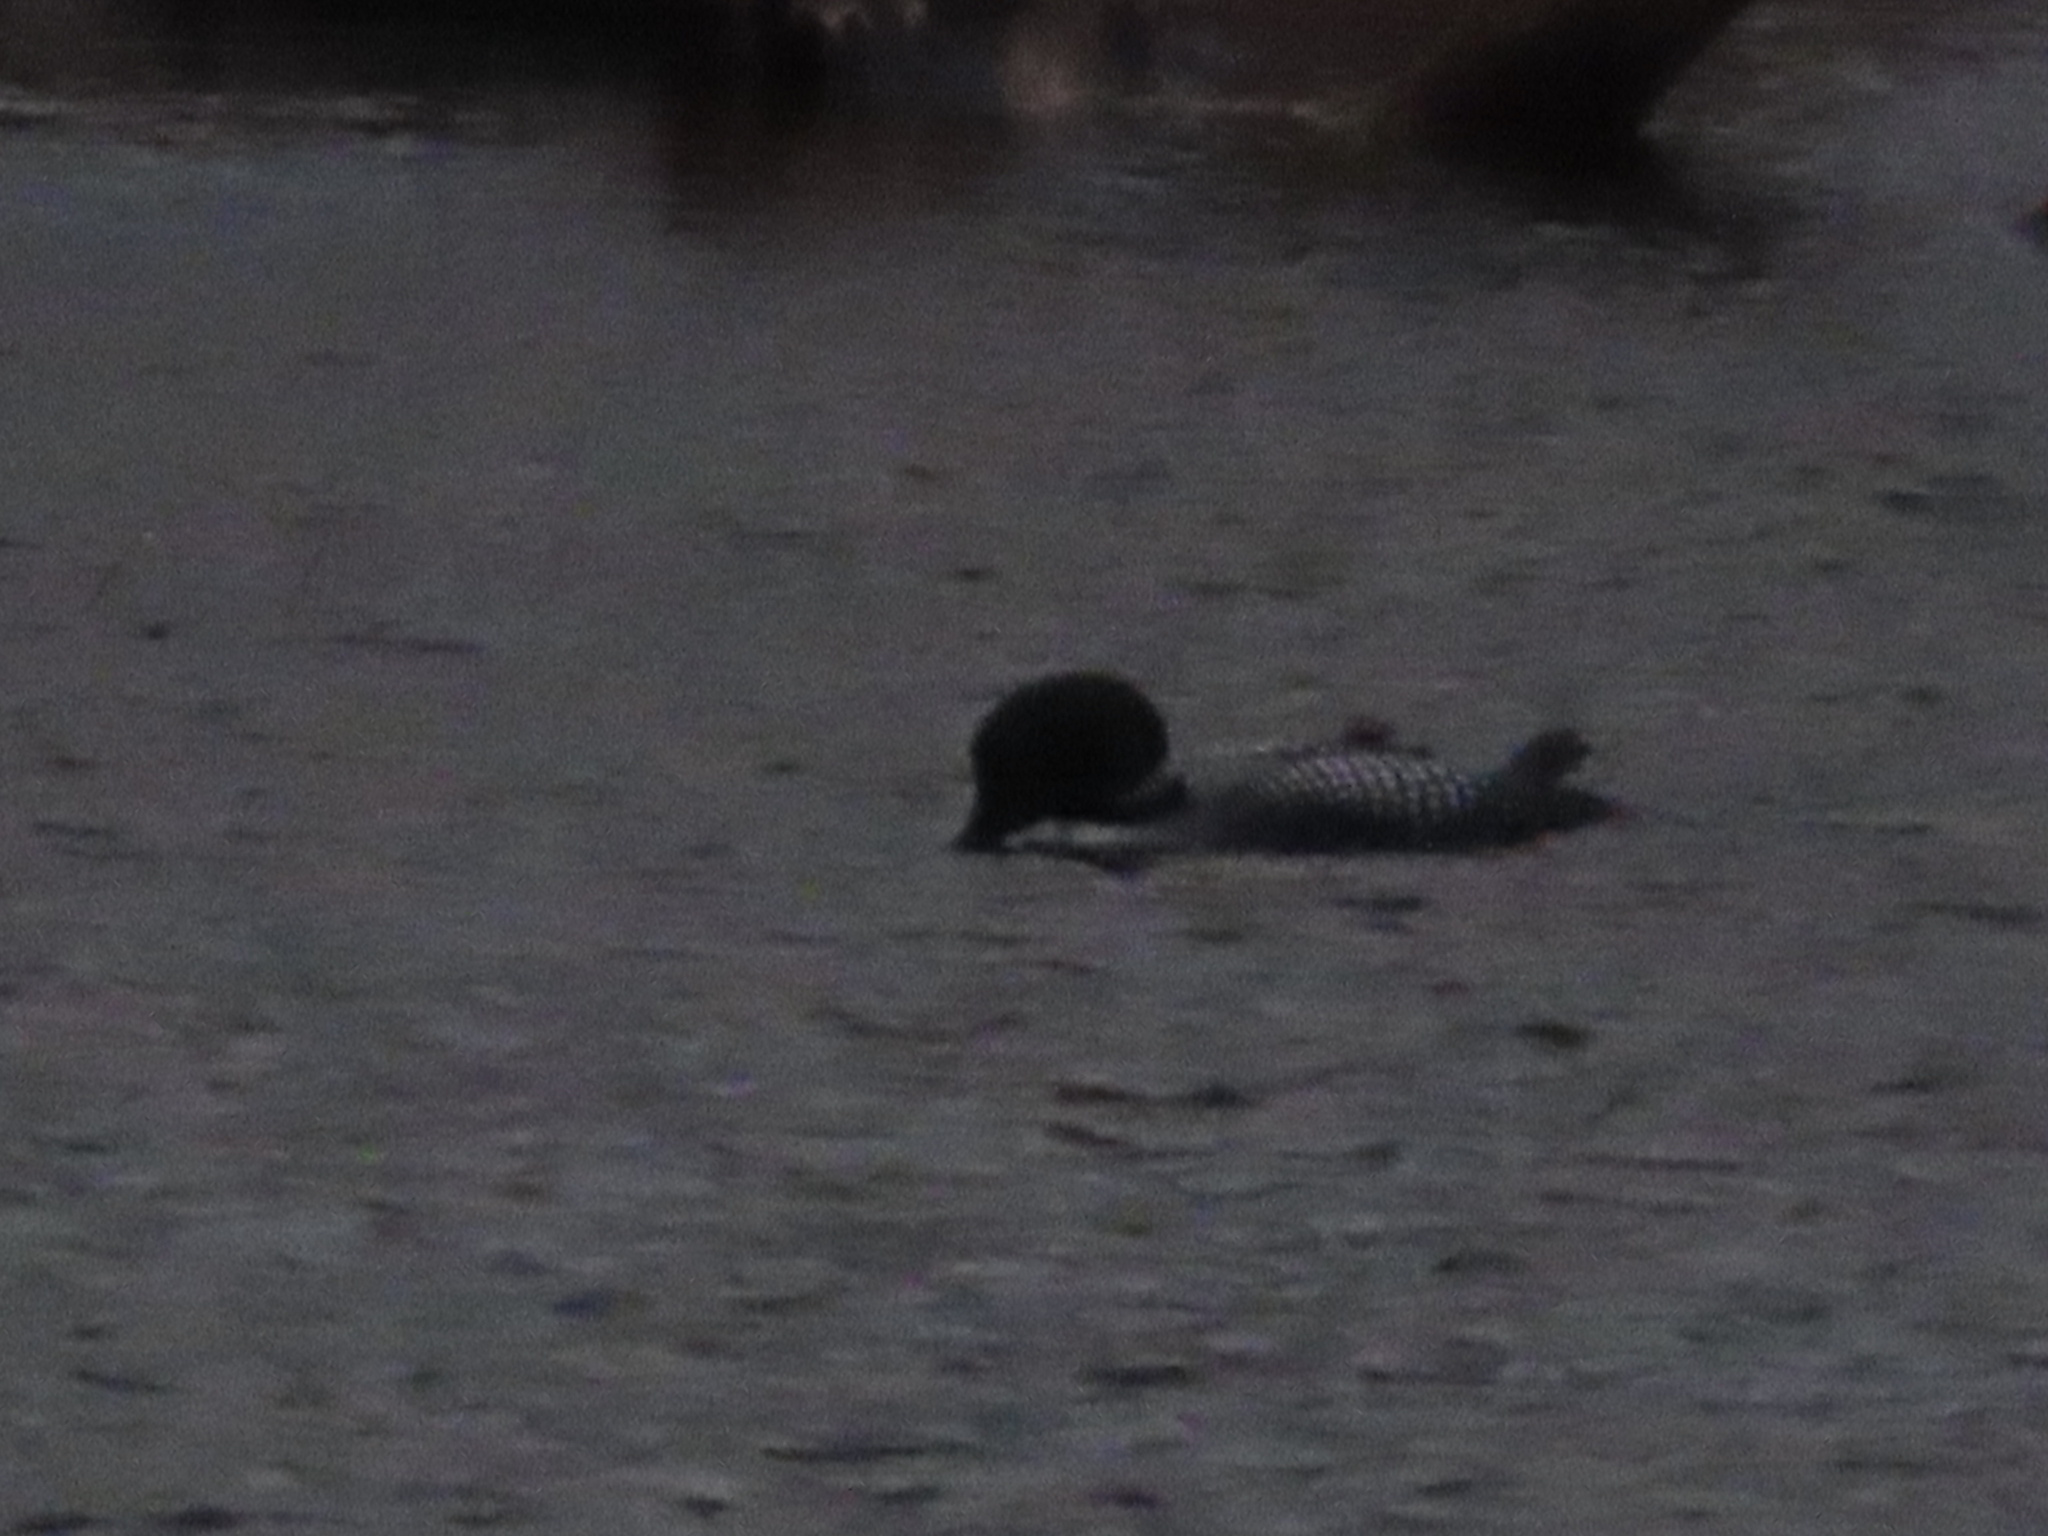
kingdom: Animalia
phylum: Chordata
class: Aves
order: Gaviiformes
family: Gaviidae
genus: Gavia
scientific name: Gavia immer
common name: Common loon
